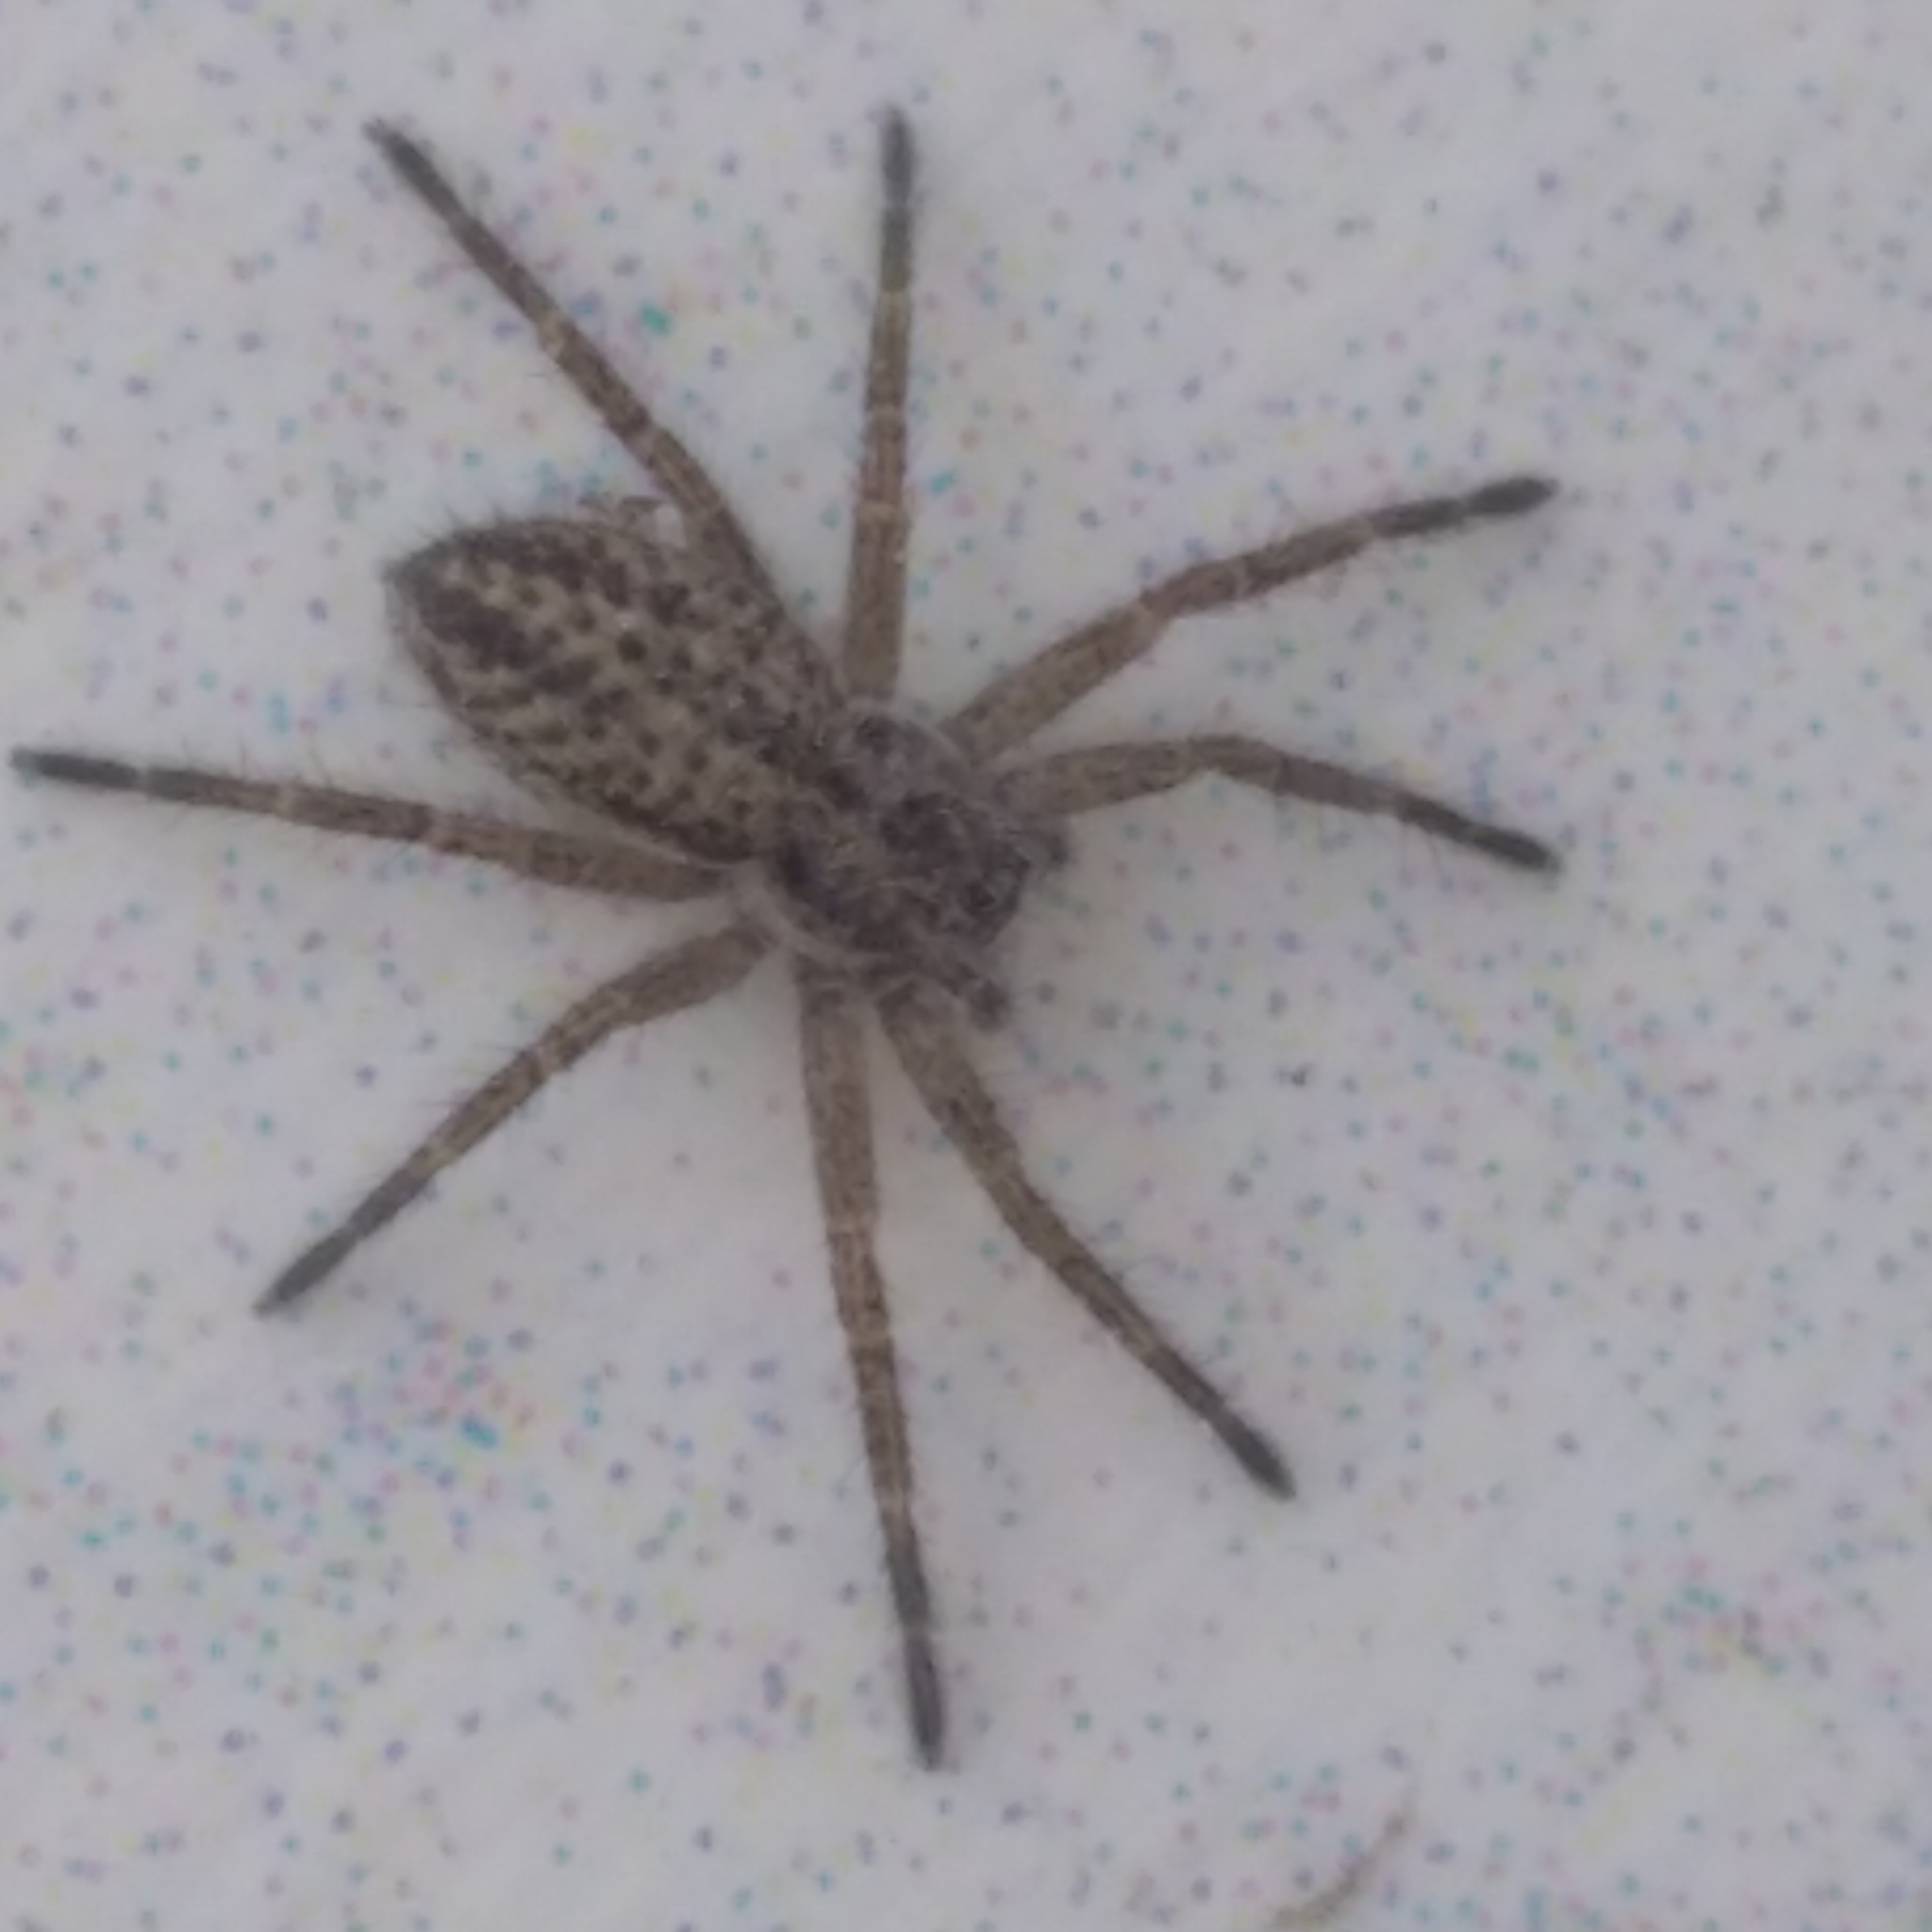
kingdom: Animalia
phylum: Arthropoda
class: Arachnida
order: Araneae
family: Philodromidae
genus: Thanatus
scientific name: Thanatus striatus
